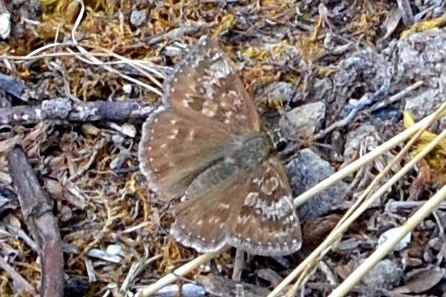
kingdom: Animalia
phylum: Arthropoda
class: Insecta
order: Lepidoptera
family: Hesperiidae
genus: Erynnis
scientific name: Erynnis tages
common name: Dingy skipper
